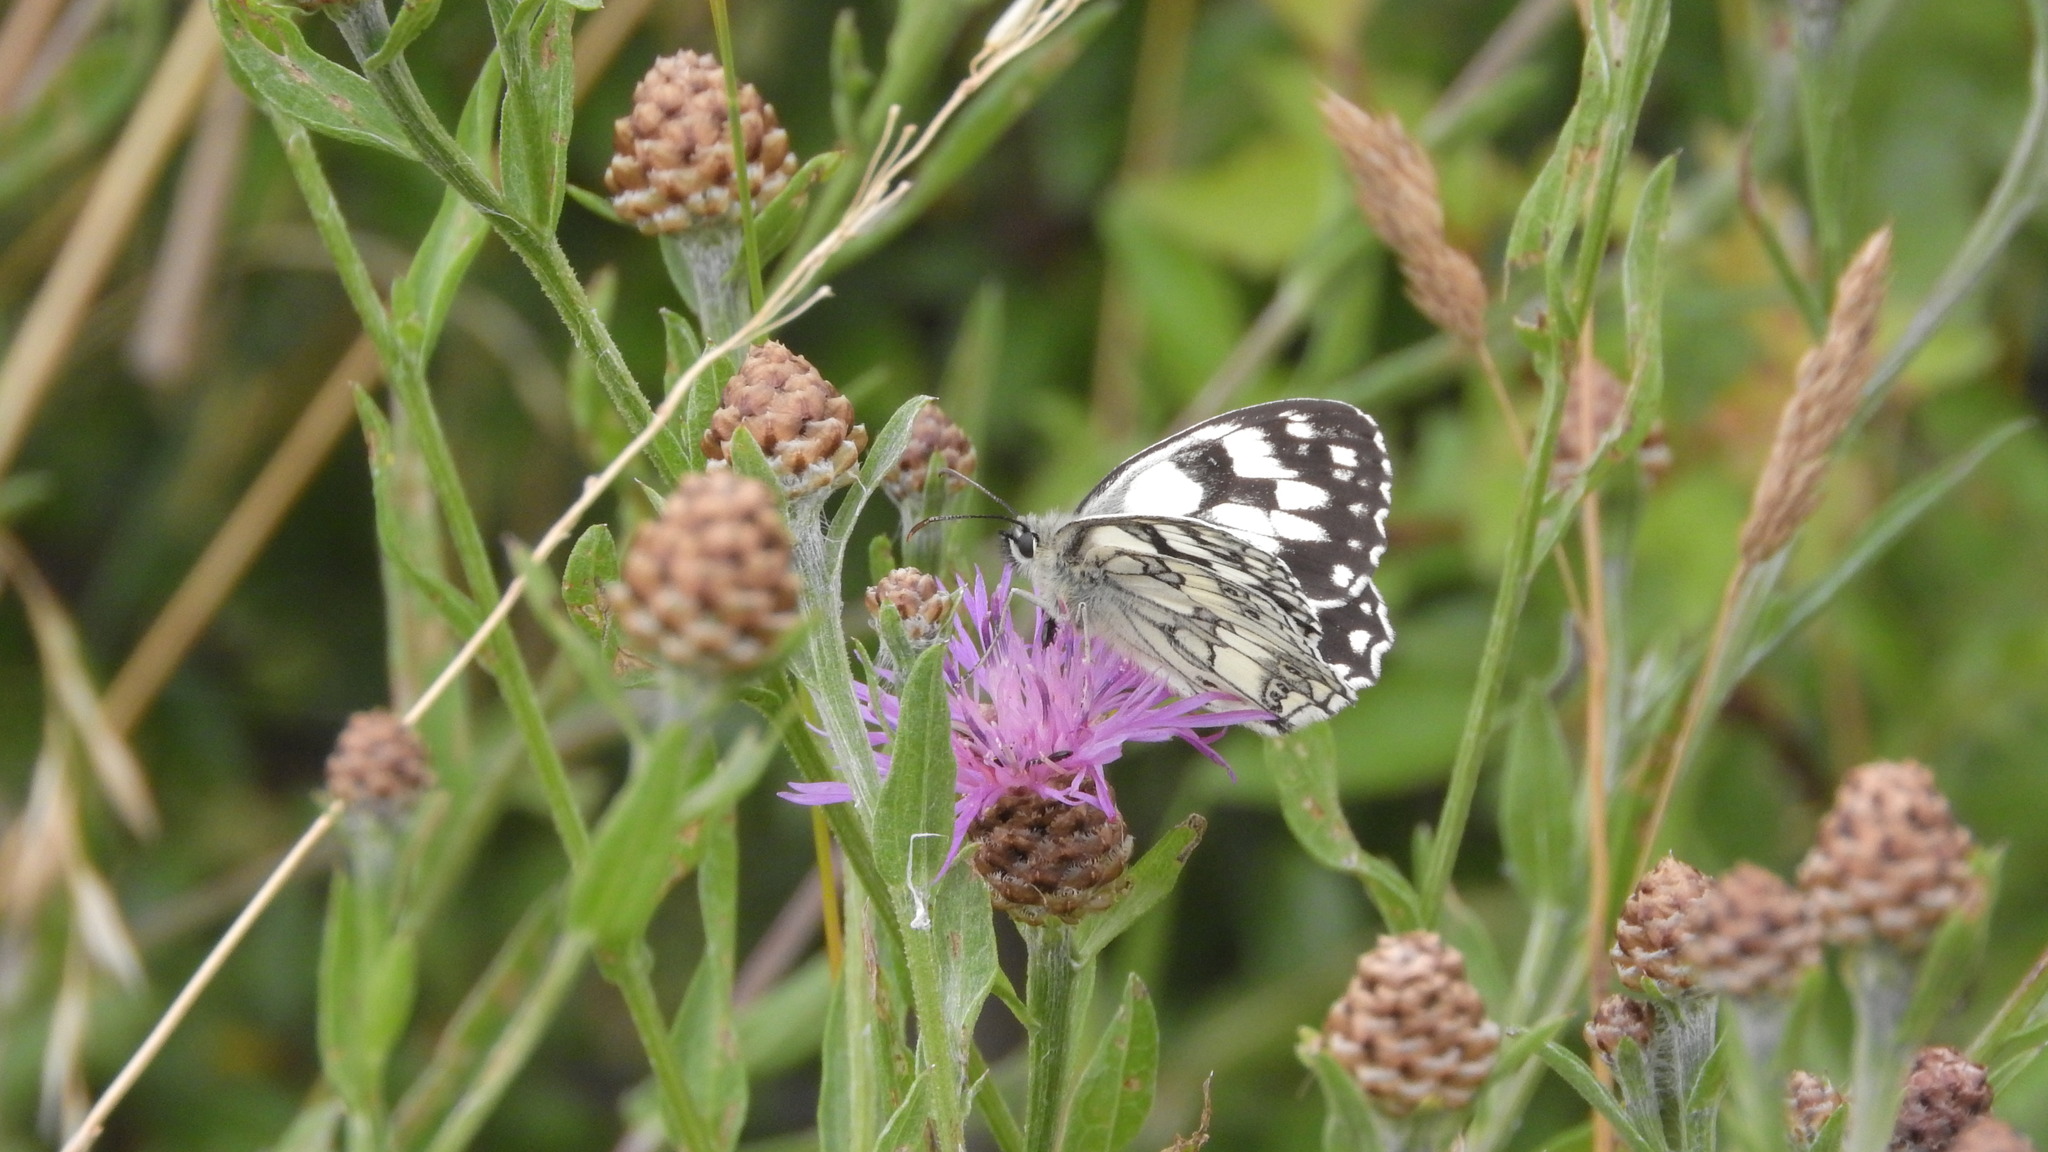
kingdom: Animalia
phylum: Arthropoda
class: Insecta
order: Lepidoptera
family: Nymphalidae
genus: Melanargia
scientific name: Melanargia galathea
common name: Marbled white
